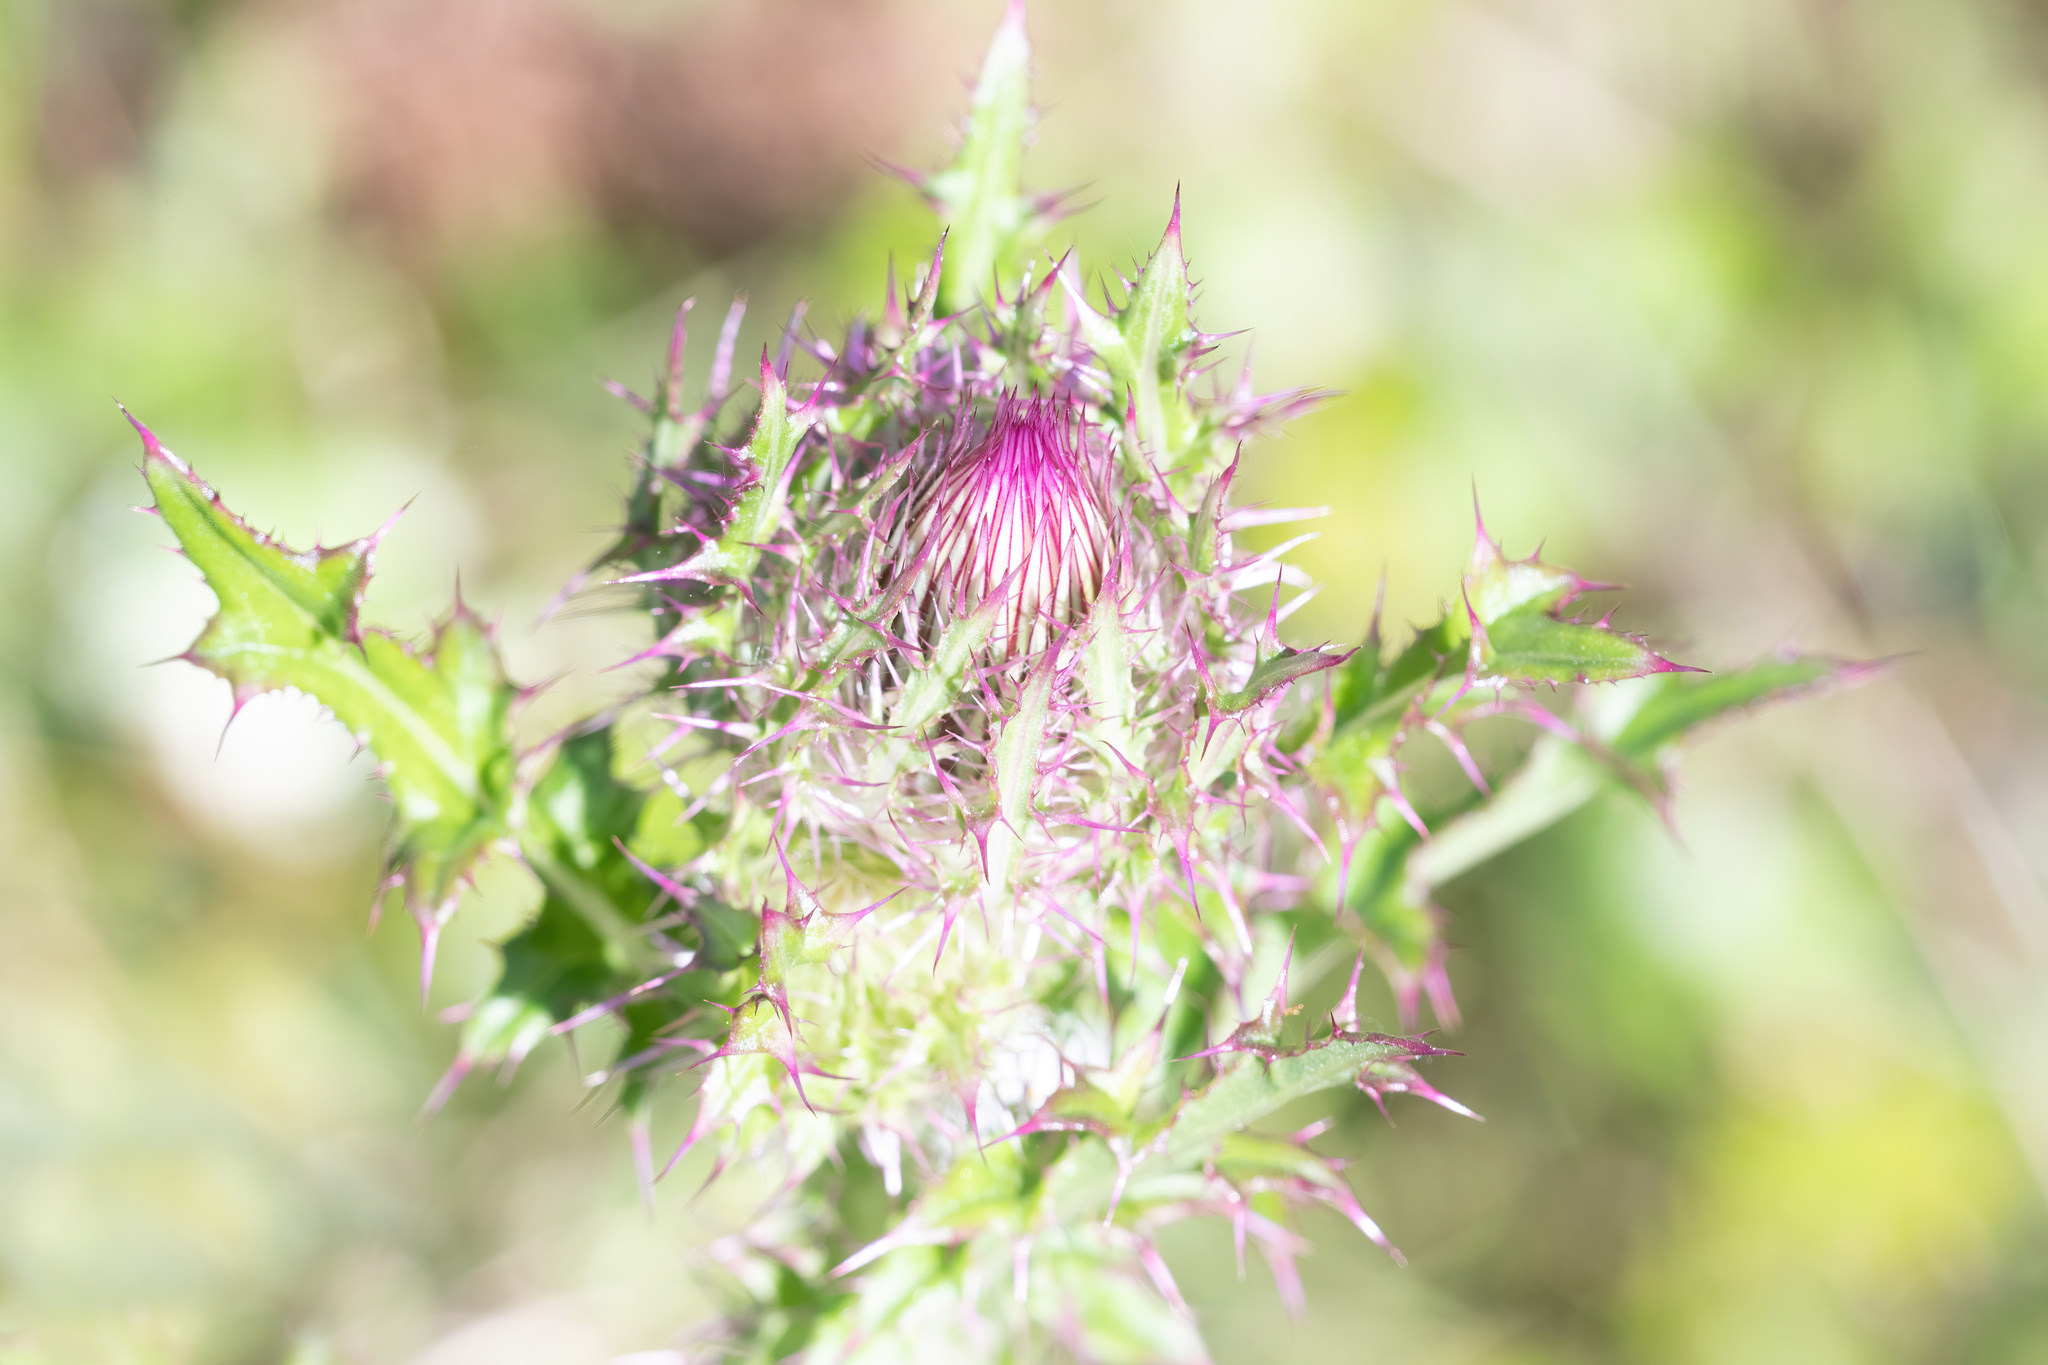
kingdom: Plantae
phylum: Tracheophyta
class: Magnoliopsida
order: Asterales
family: Asteraceae
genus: Cirsium
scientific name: Cirsium horridulum
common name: Bristly thistle
